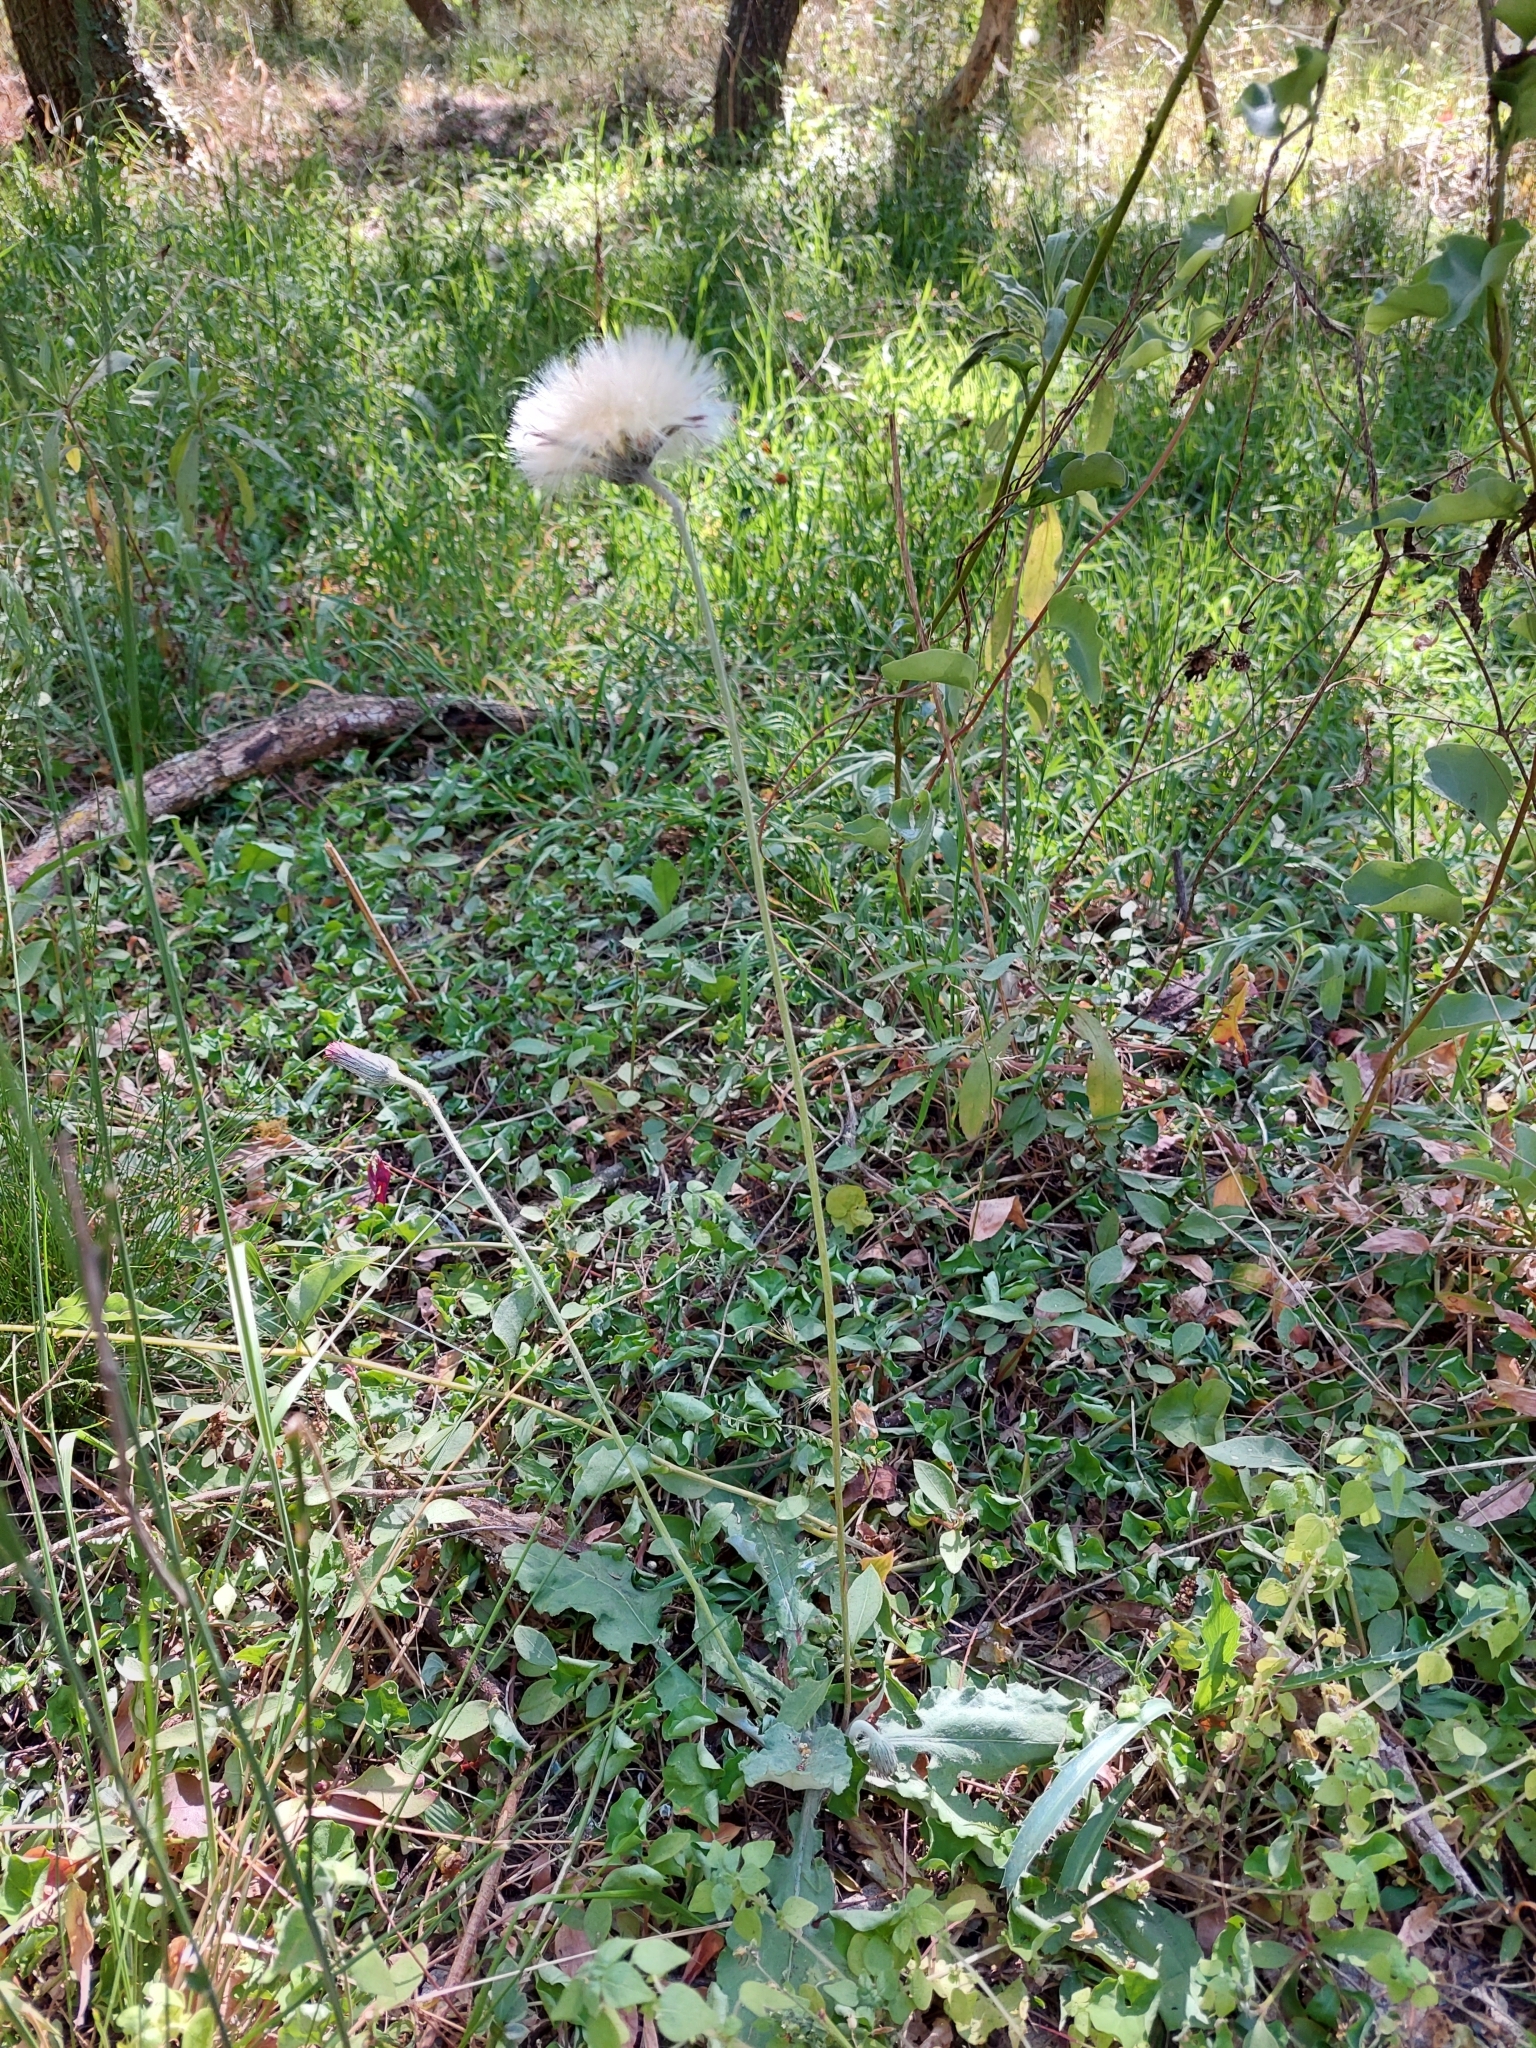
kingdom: Plantae
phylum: Tracheophyta
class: Magnoliopsida
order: Asterales
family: Asteraceae
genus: Chaptalia
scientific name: Chaptalia nutans
